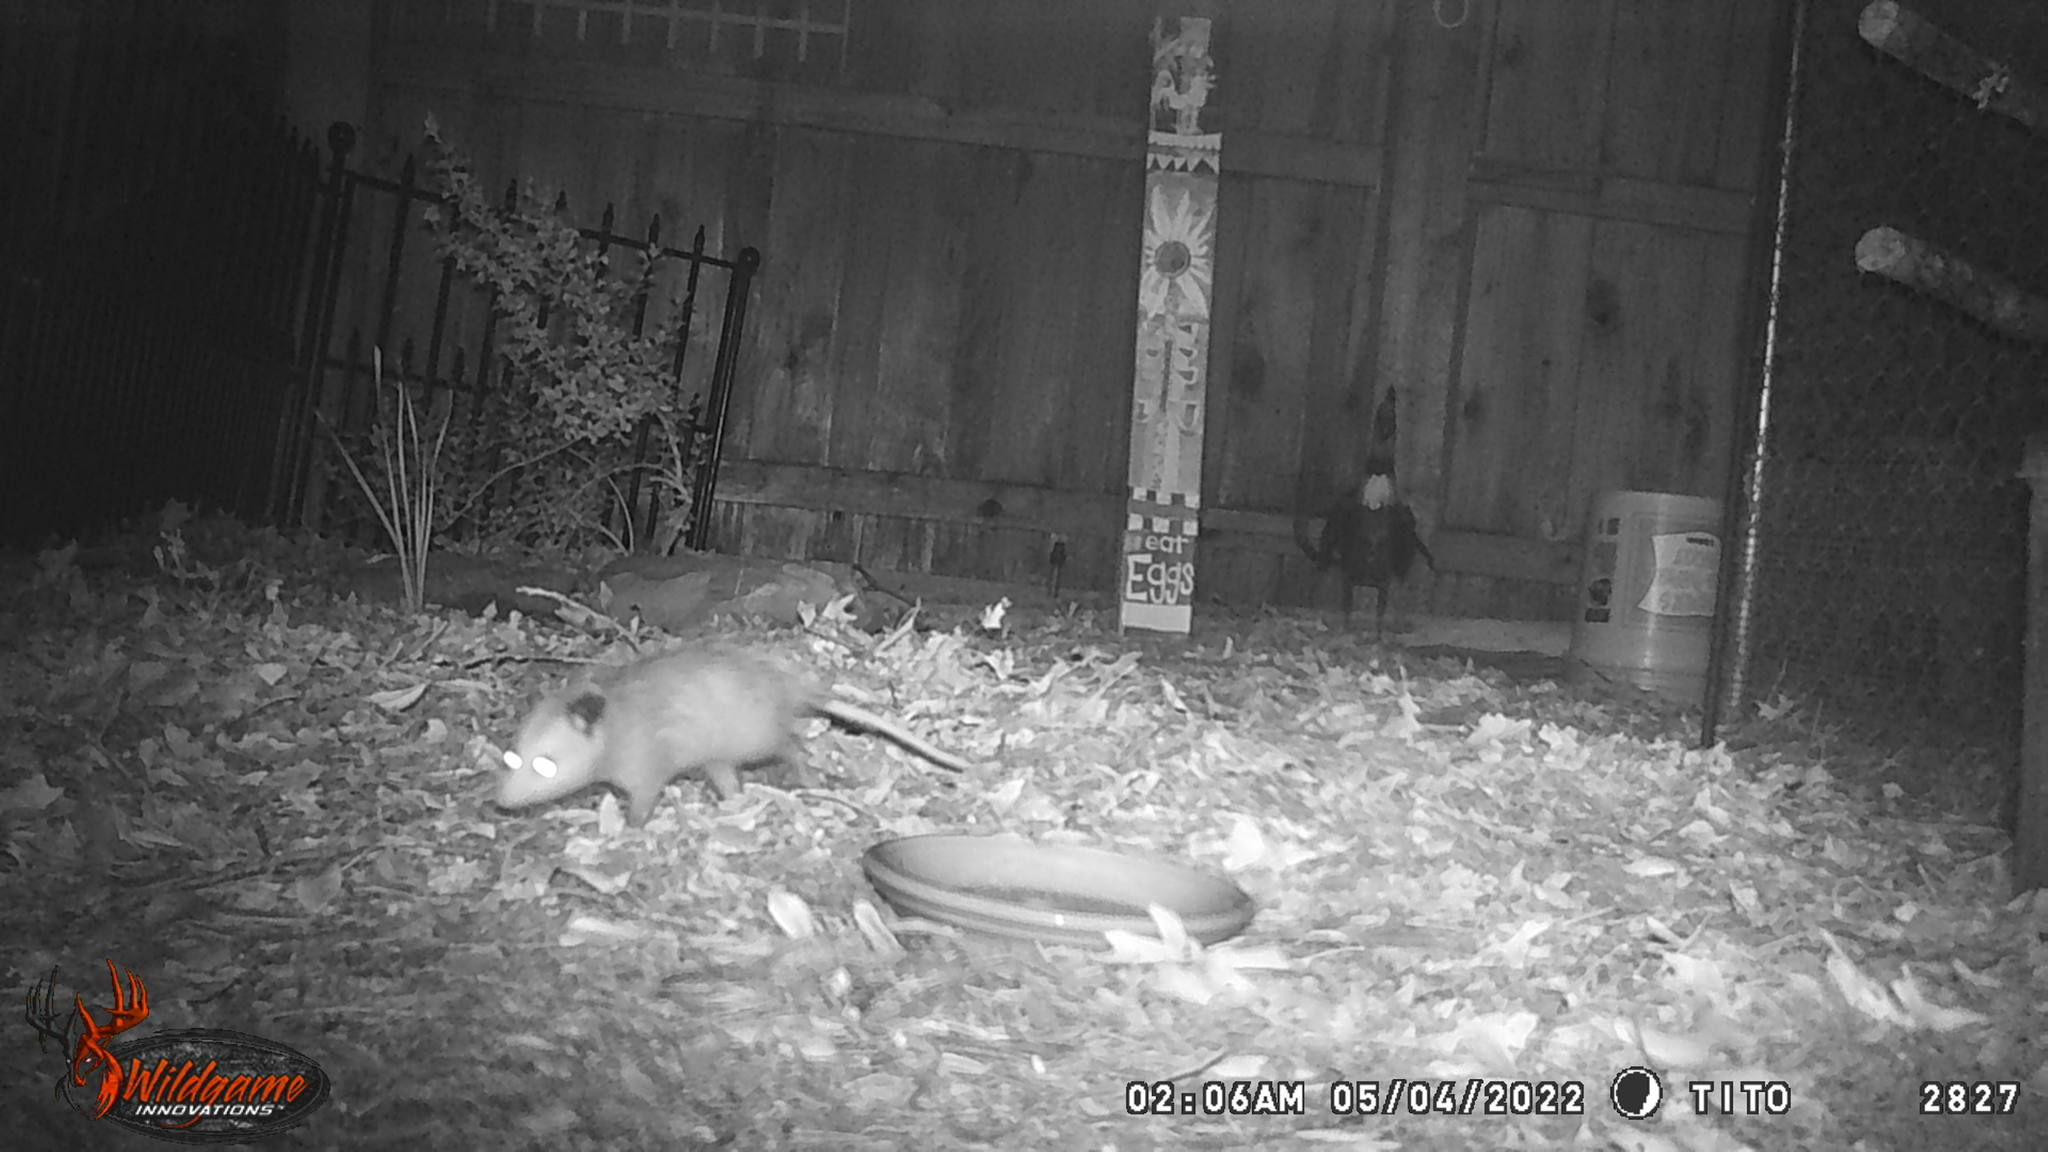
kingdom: Animalia
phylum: Chordata
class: Mammalia
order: Didelphimorphia
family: Didelphidae
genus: Didelphis
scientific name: Didelphis virginiana
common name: Virginia opossum
